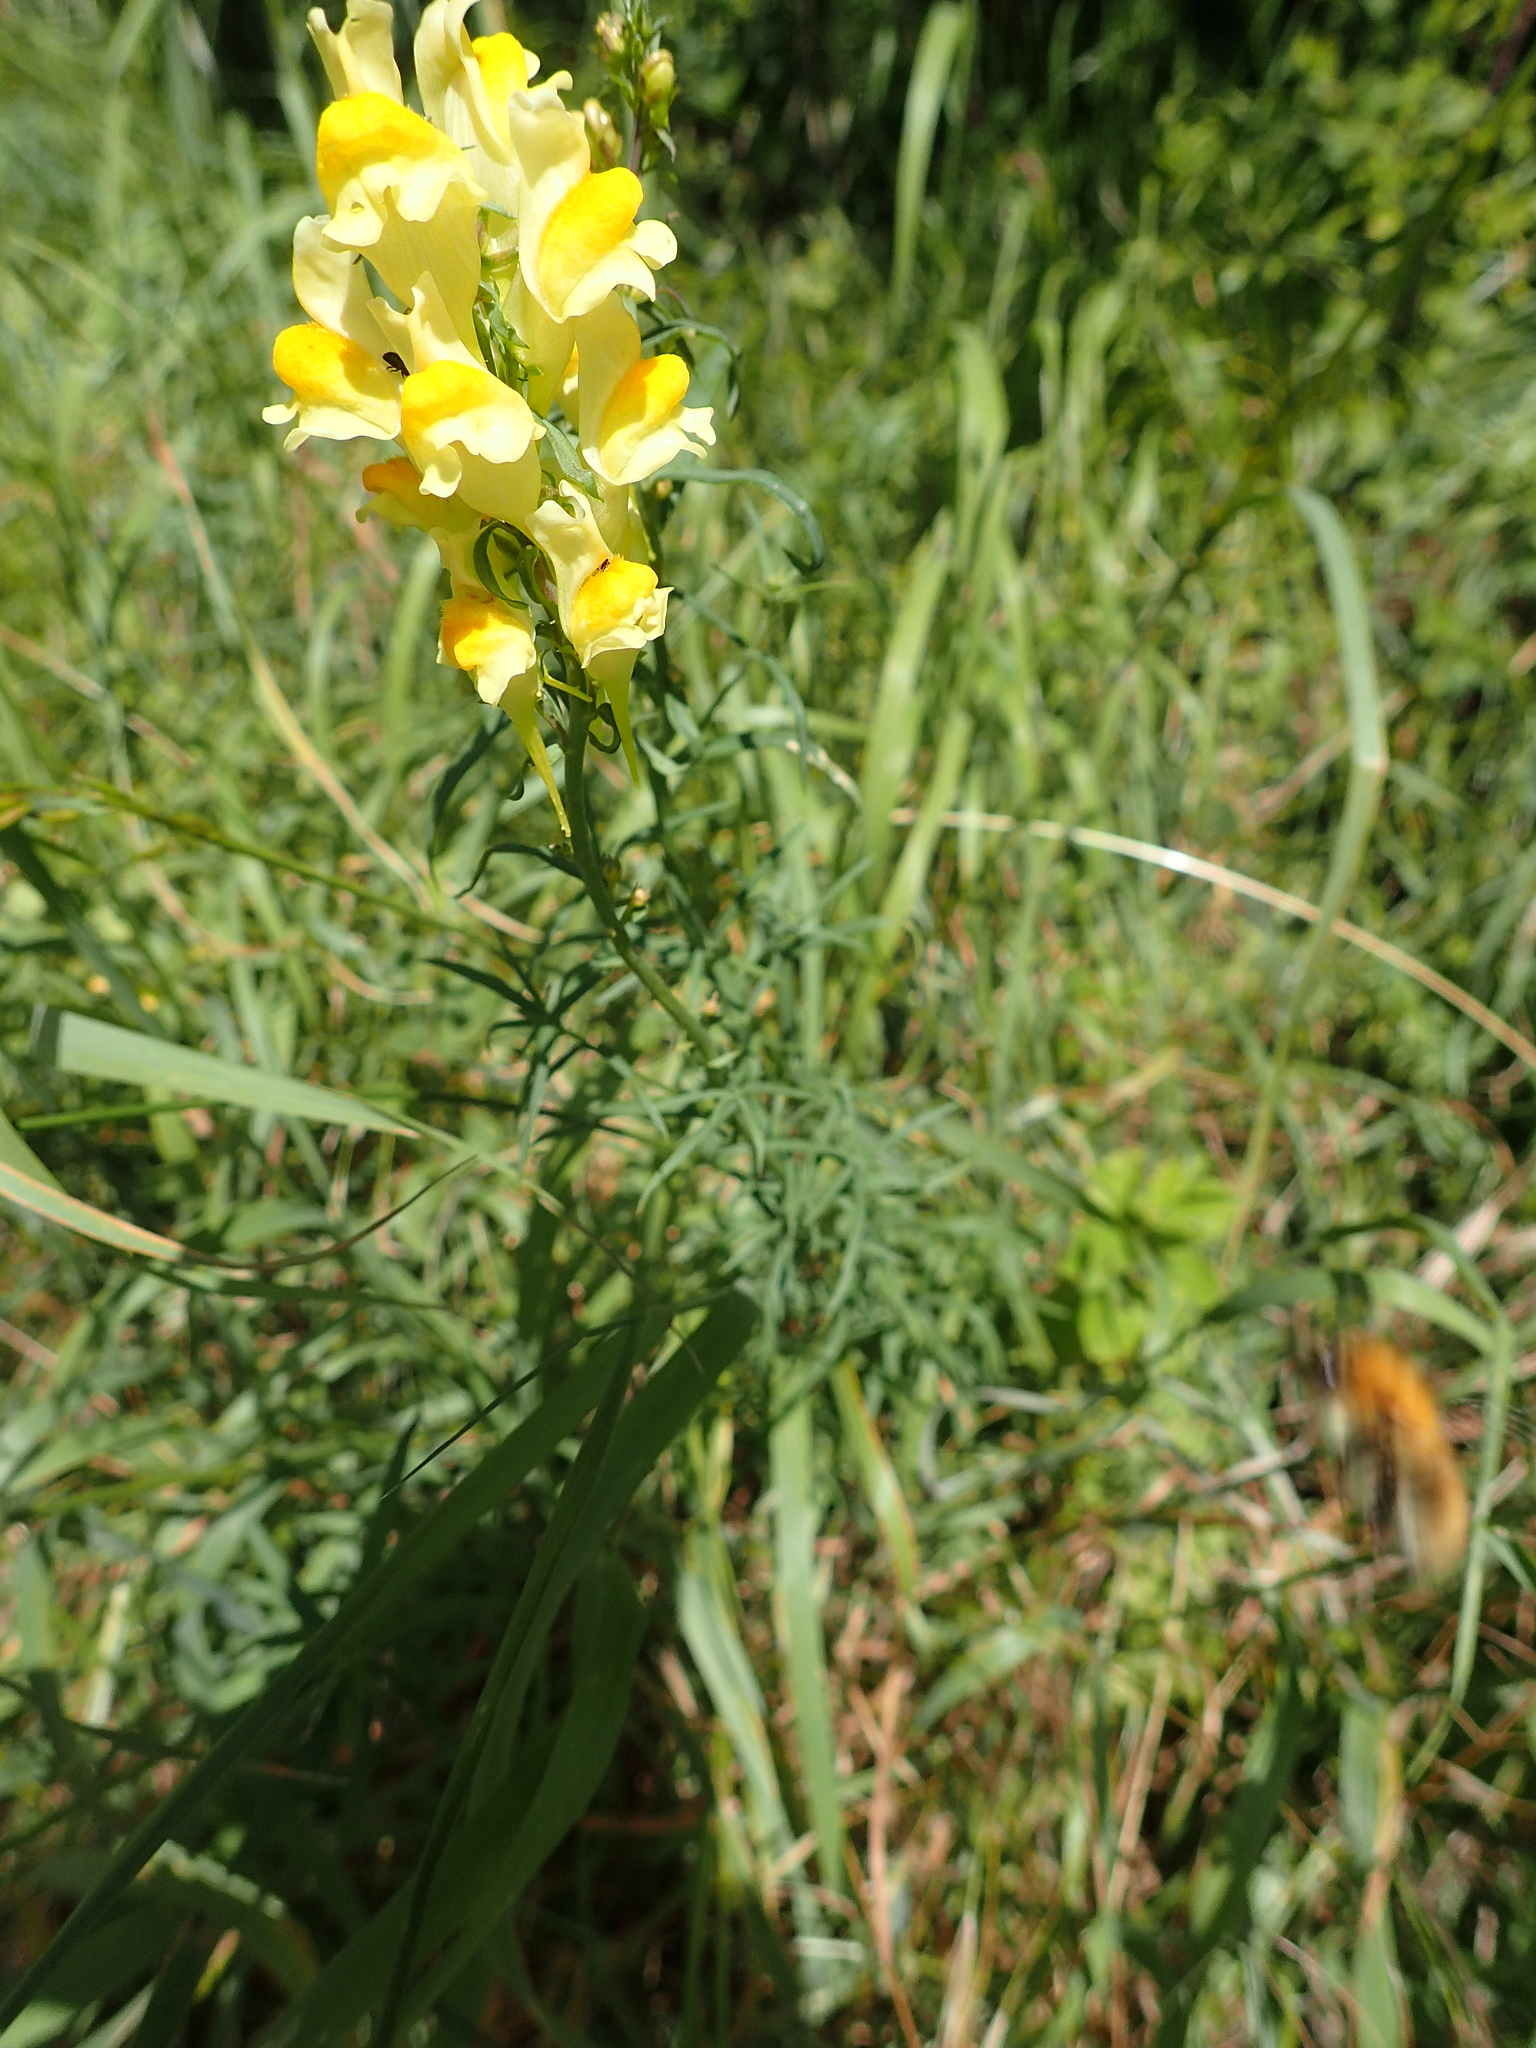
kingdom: Plantae
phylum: Tracheophyta
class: Magnoliopsida
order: Lamiales
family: Plantaginaceae
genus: Linaria
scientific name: Linaria vulgaris
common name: Butter and eggs
